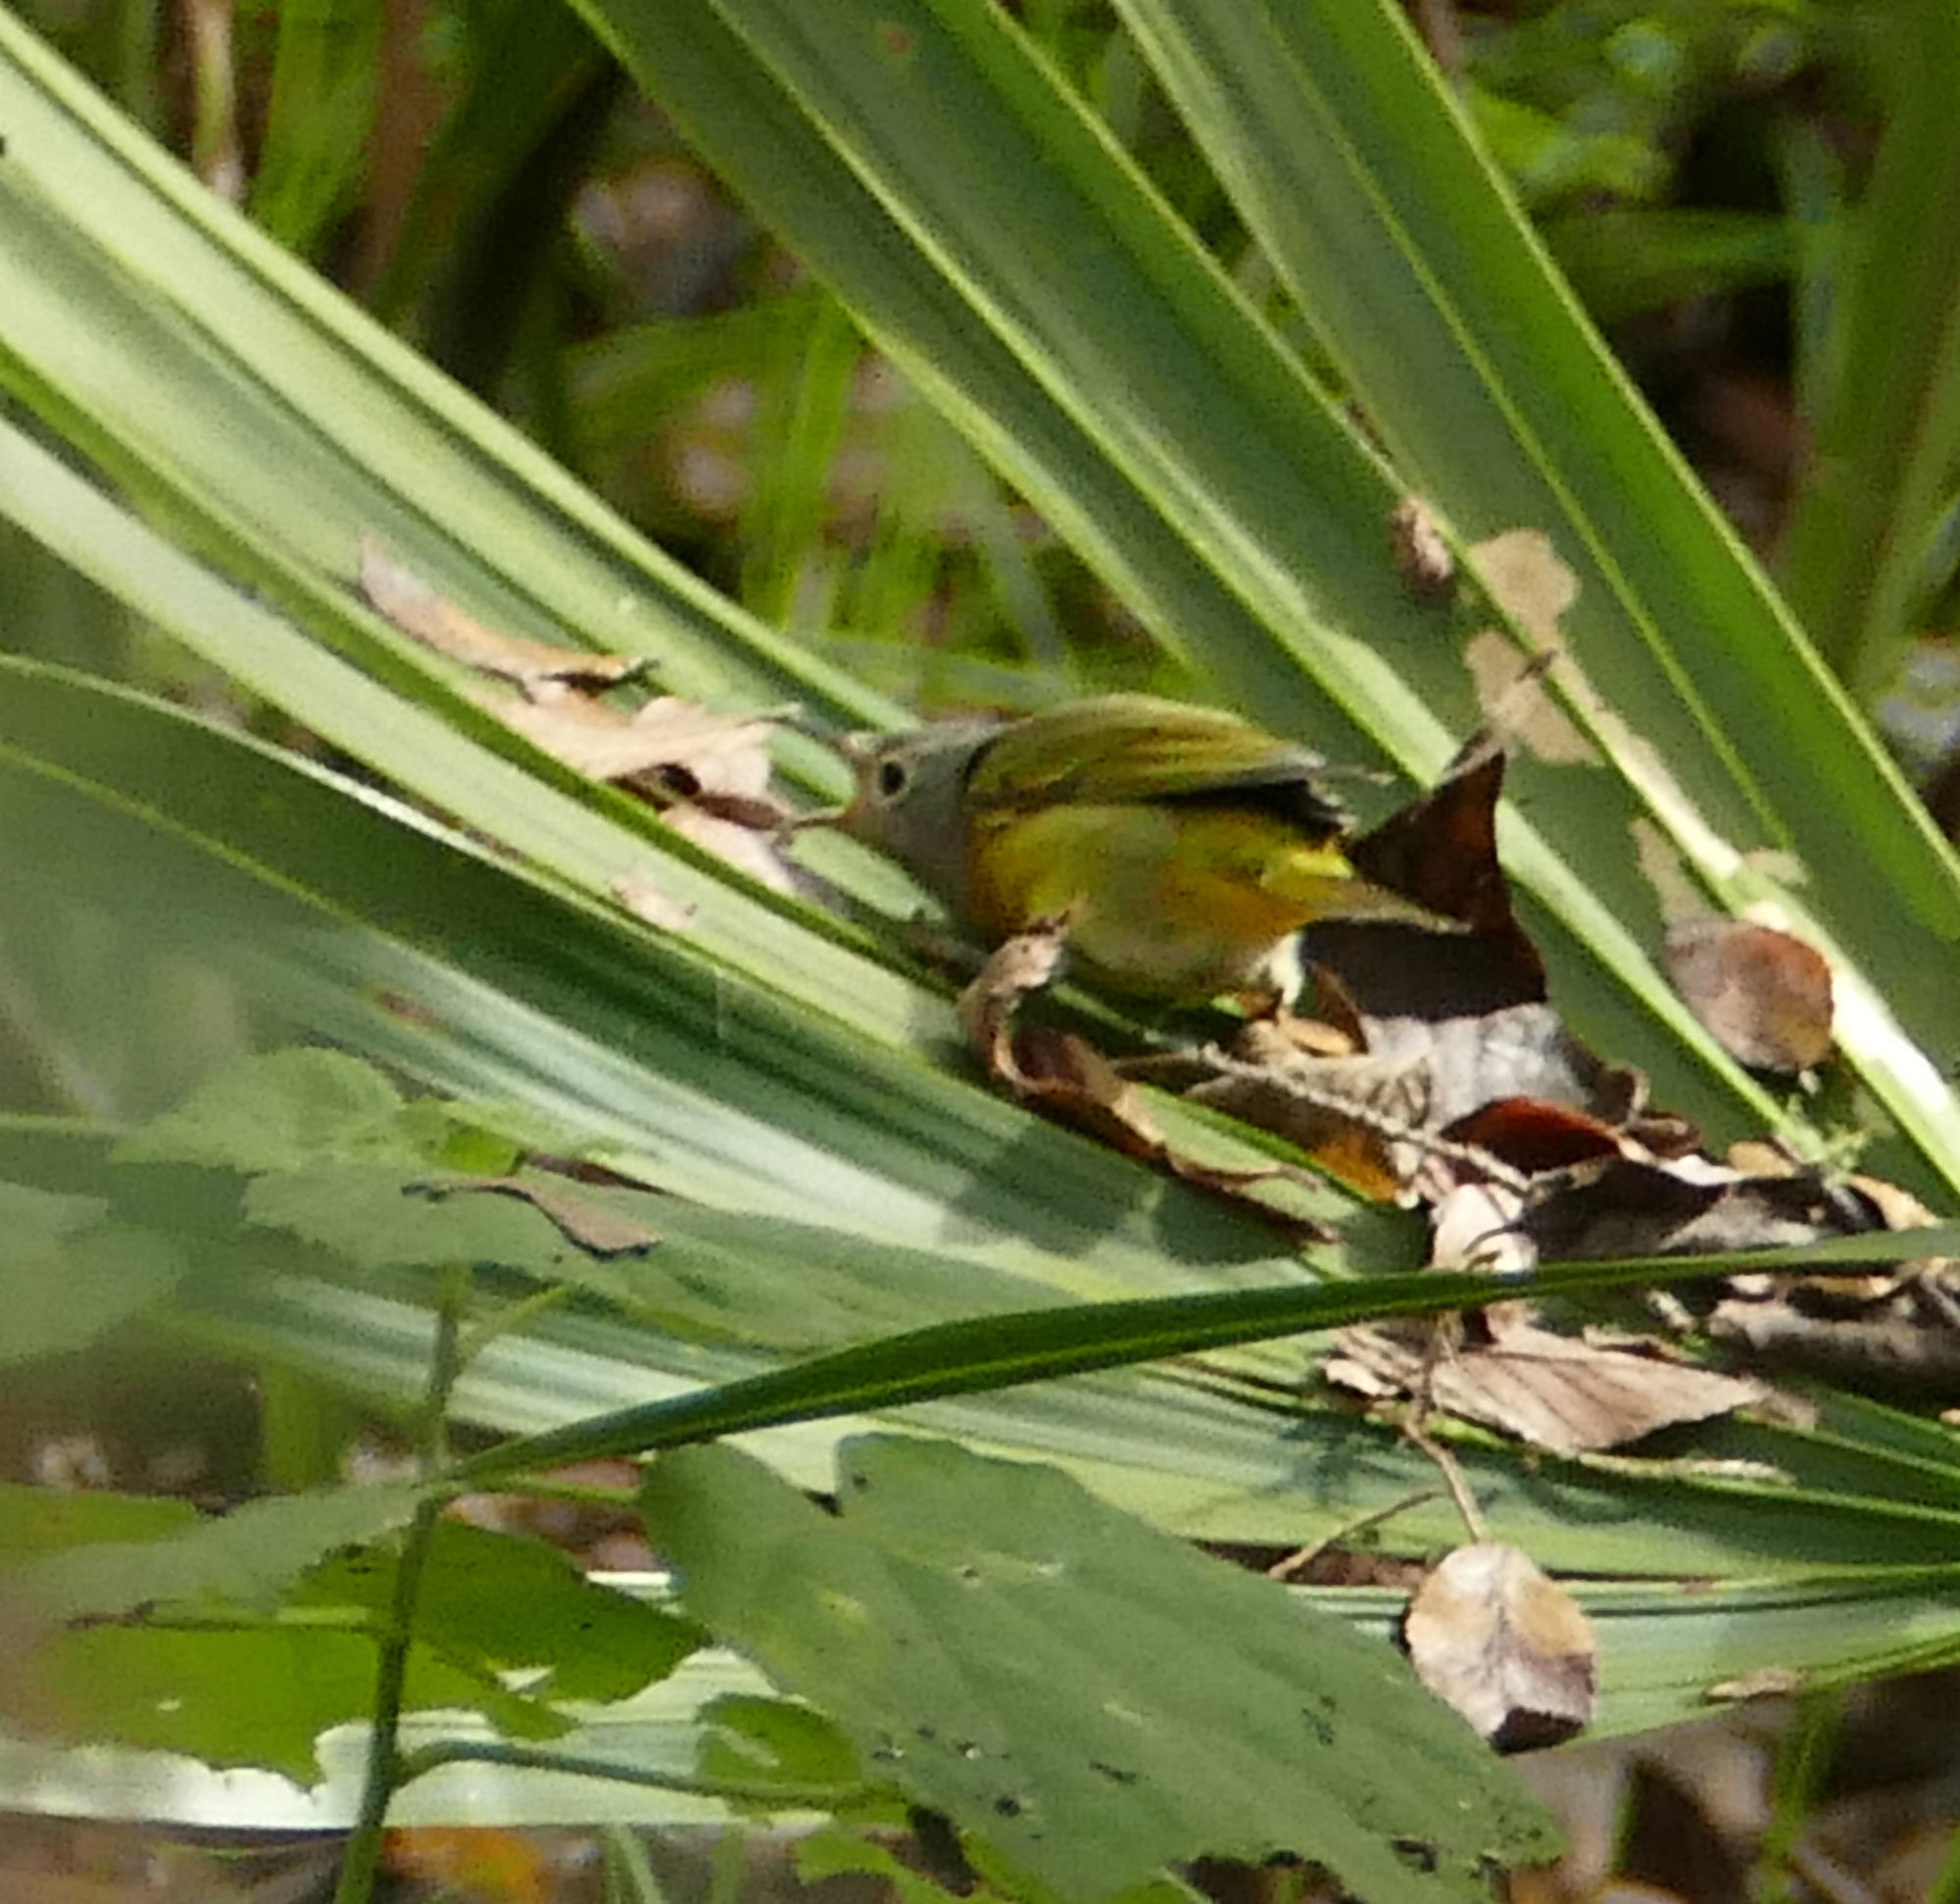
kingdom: Animalia
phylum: Chordata
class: Aves
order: Passeriformes
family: Parulidae
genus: Leiothlypis
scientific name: Leiothlypis ruficapilla
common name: Nashville warbler
